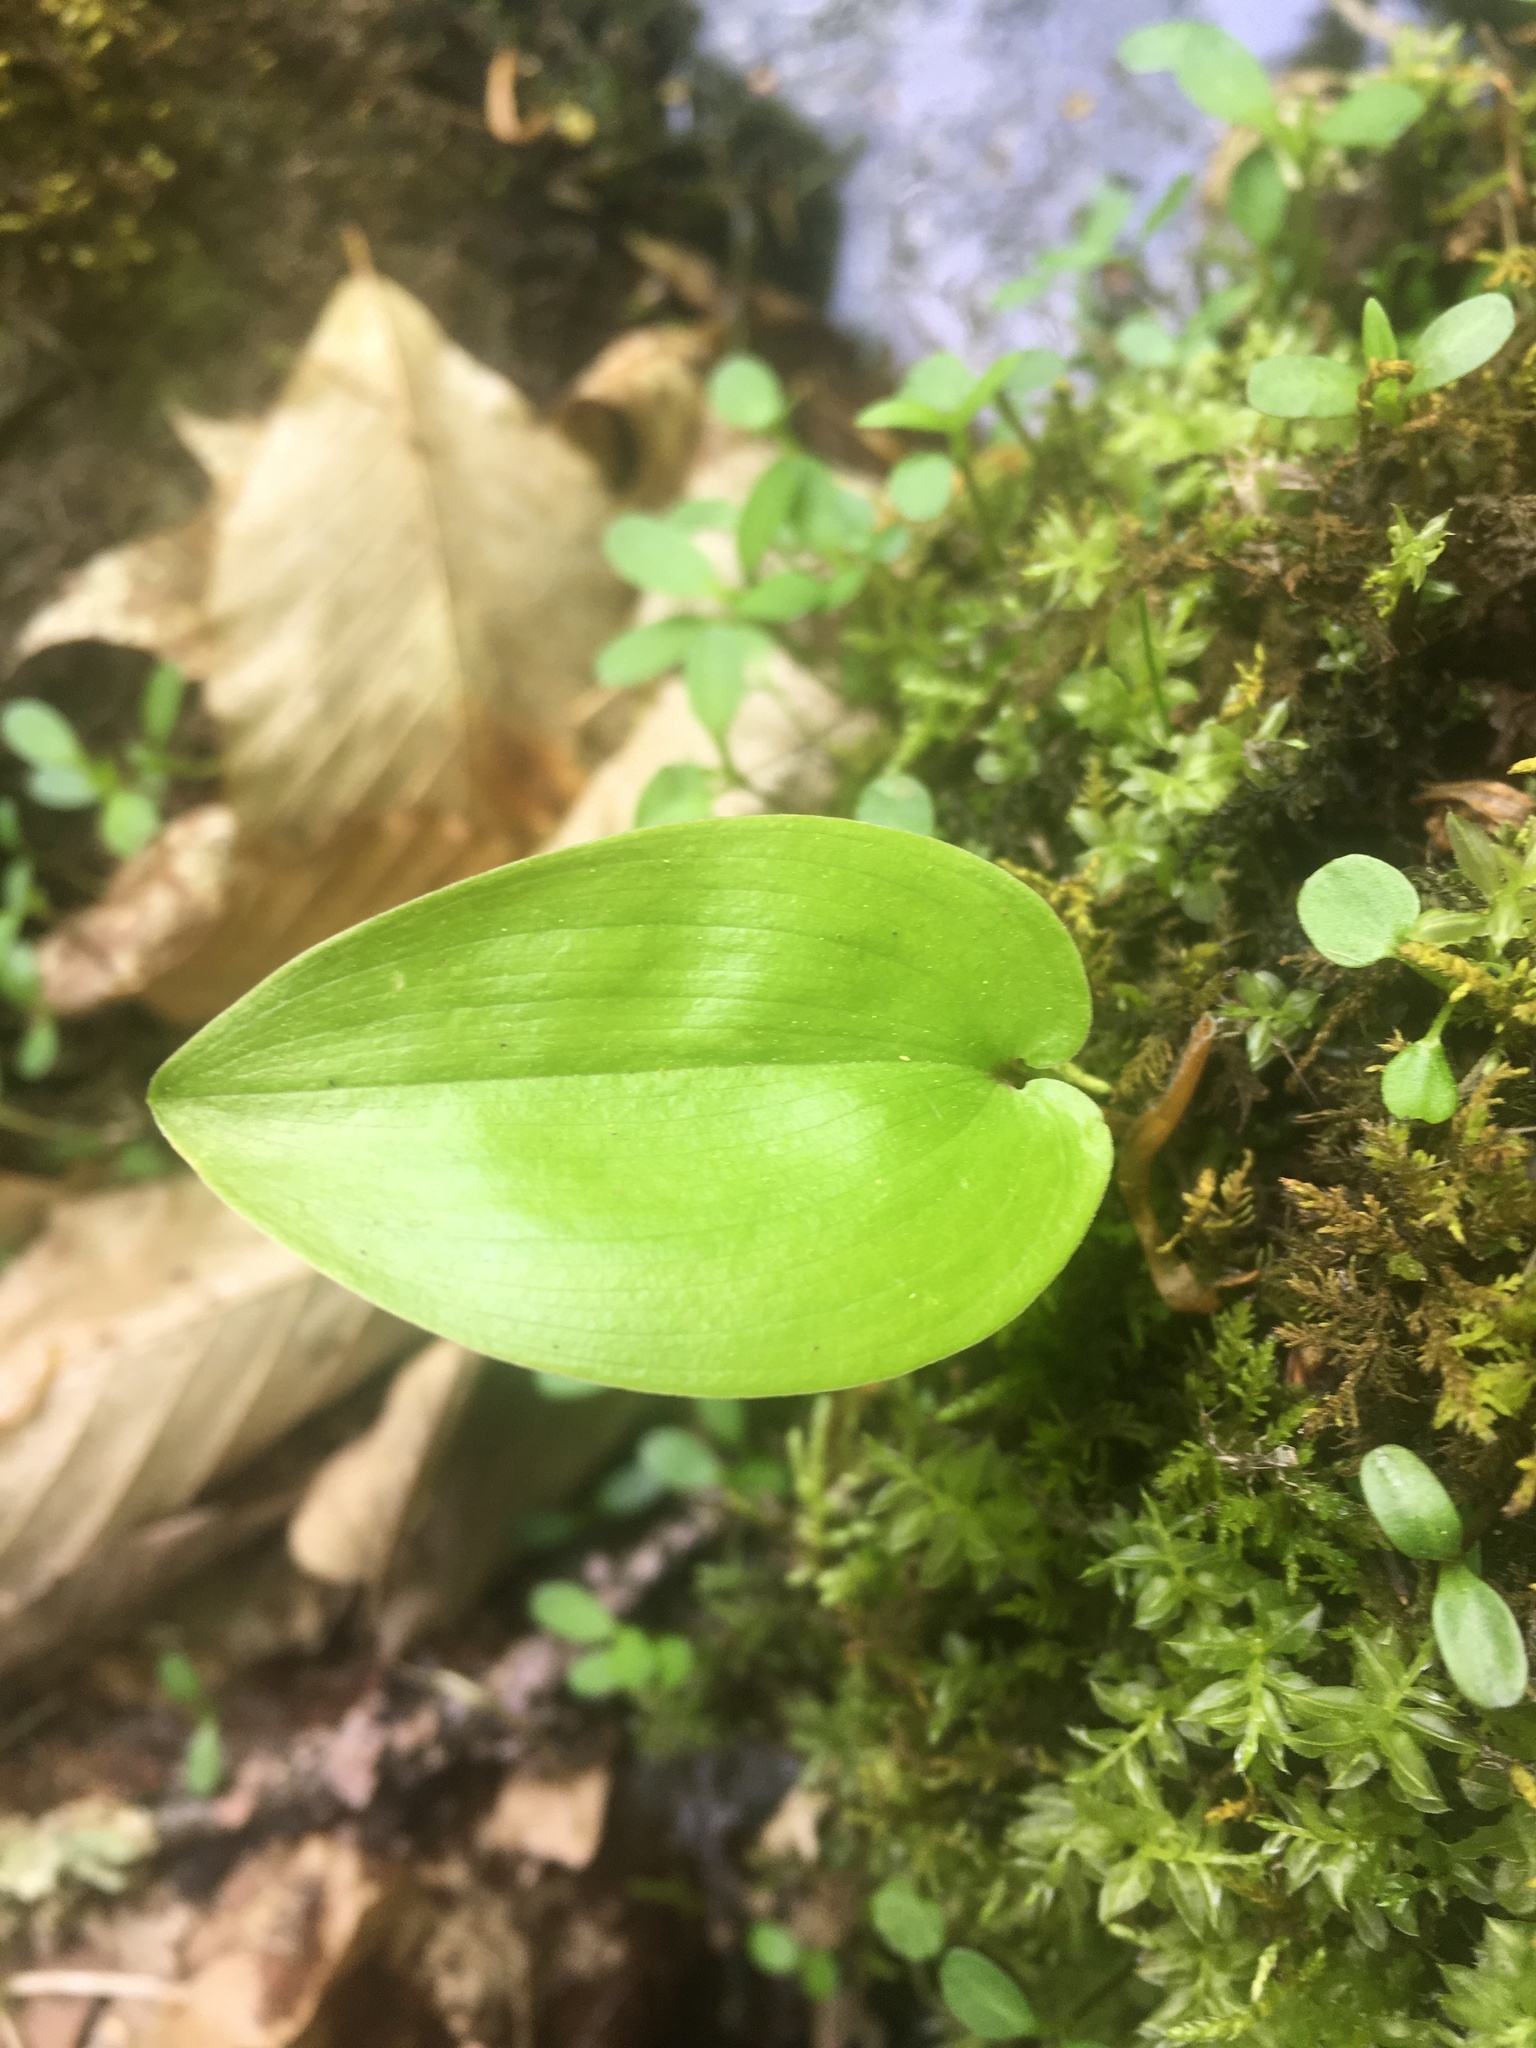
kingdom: Plantae
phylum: Tracheophyta
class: Liliopsida
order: Asparagales
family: Asparagaceae
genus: Maianthemum
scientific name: Maianthemum canadense
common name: False lily-of-the-valley
